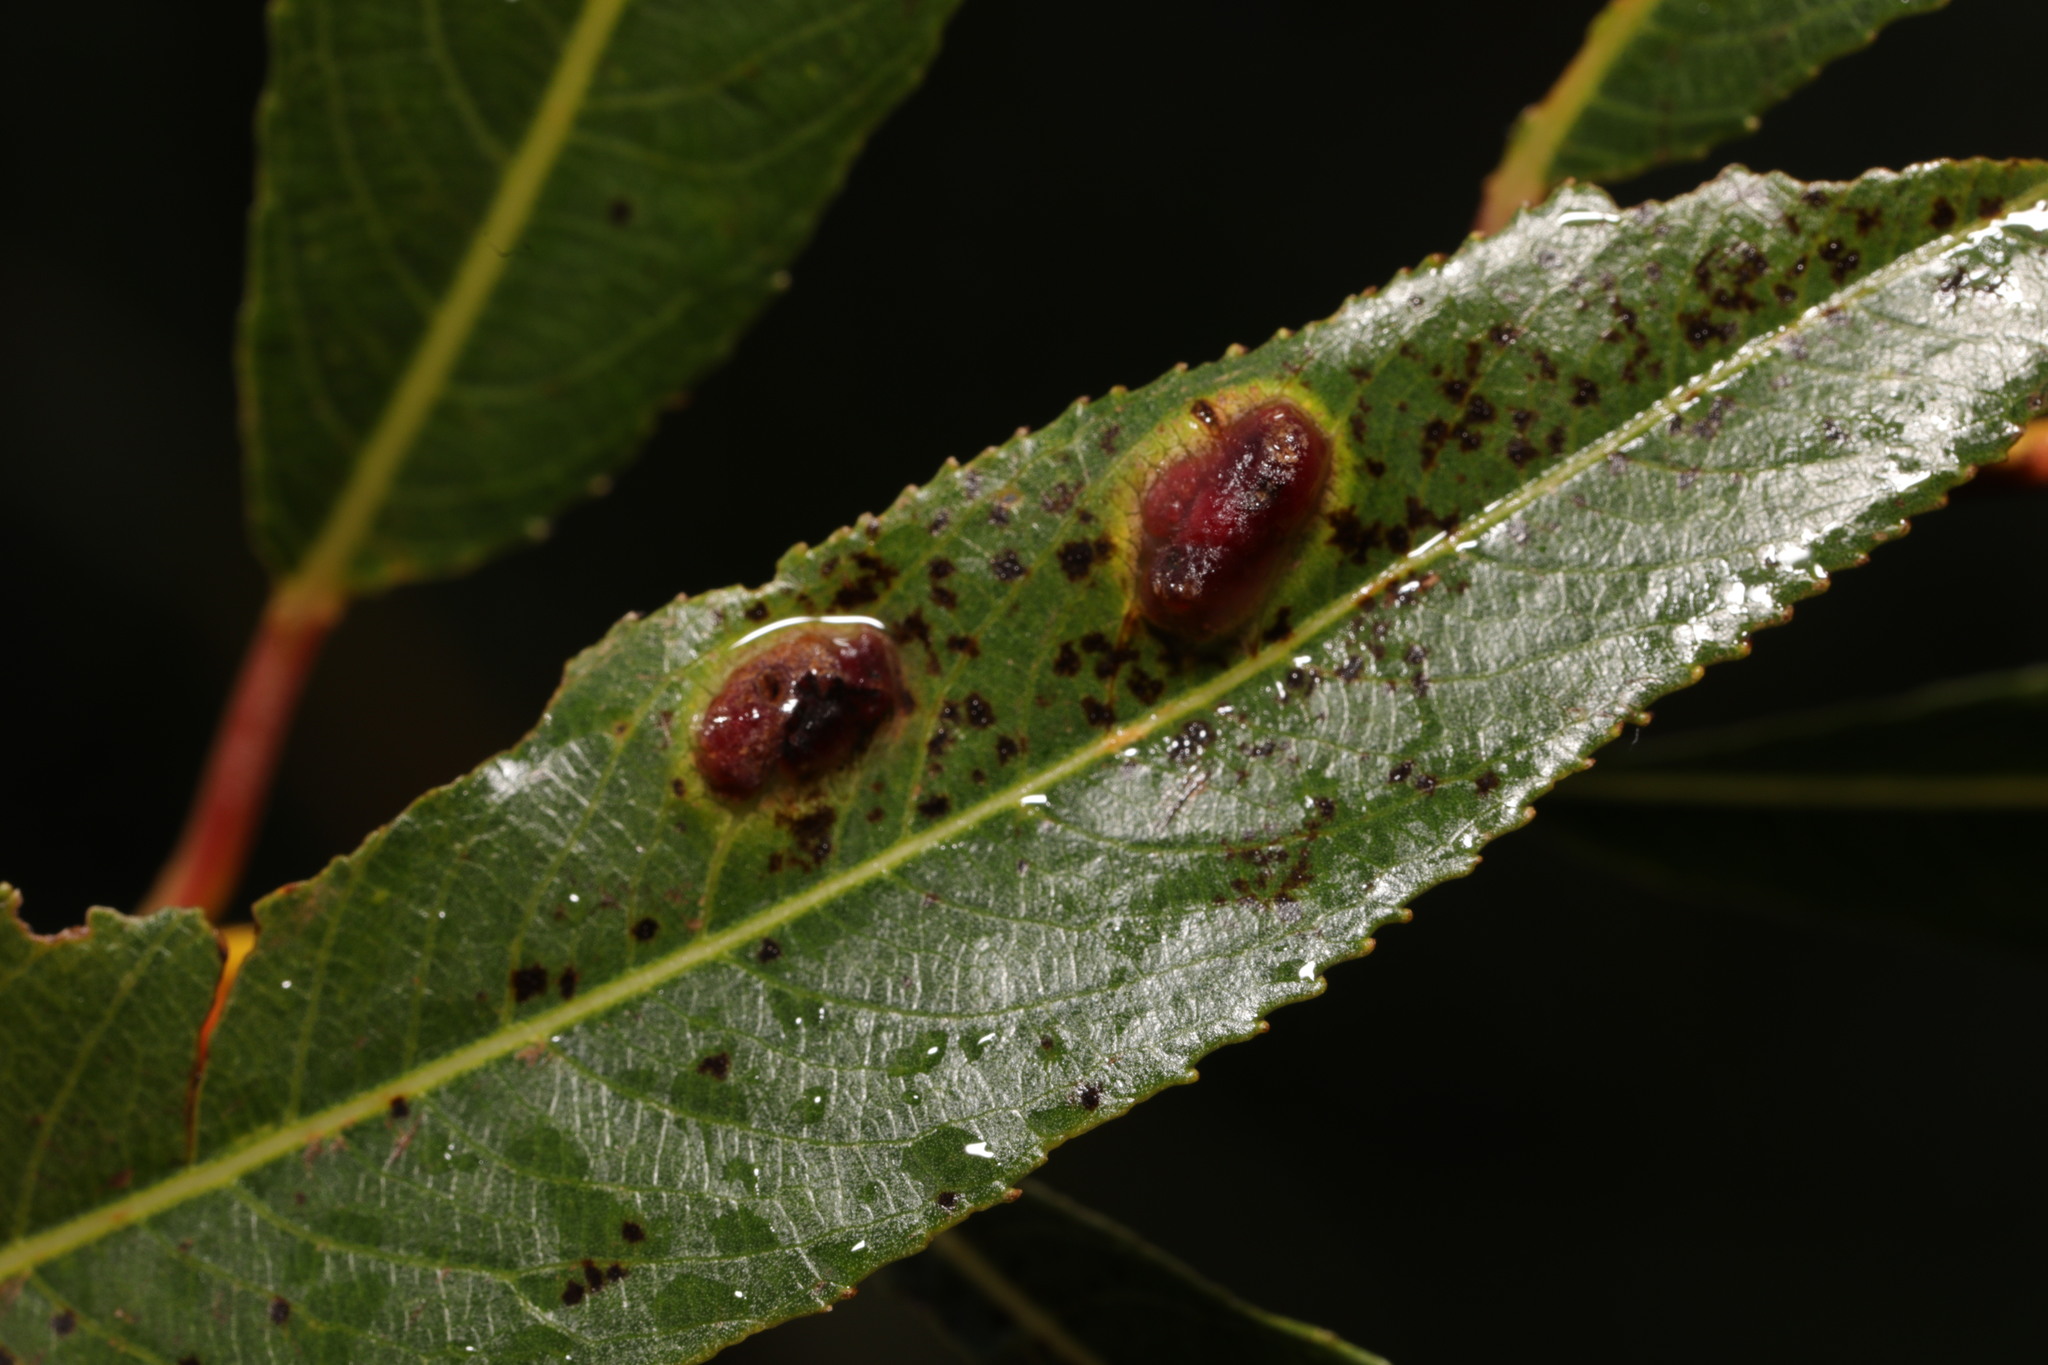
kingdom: Animalia
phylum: Arthropoda
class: Insecta
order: Hymenoptera
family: Tenthredinidae
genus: Pontania
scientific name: Pontania proxima
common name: Common sawfly
